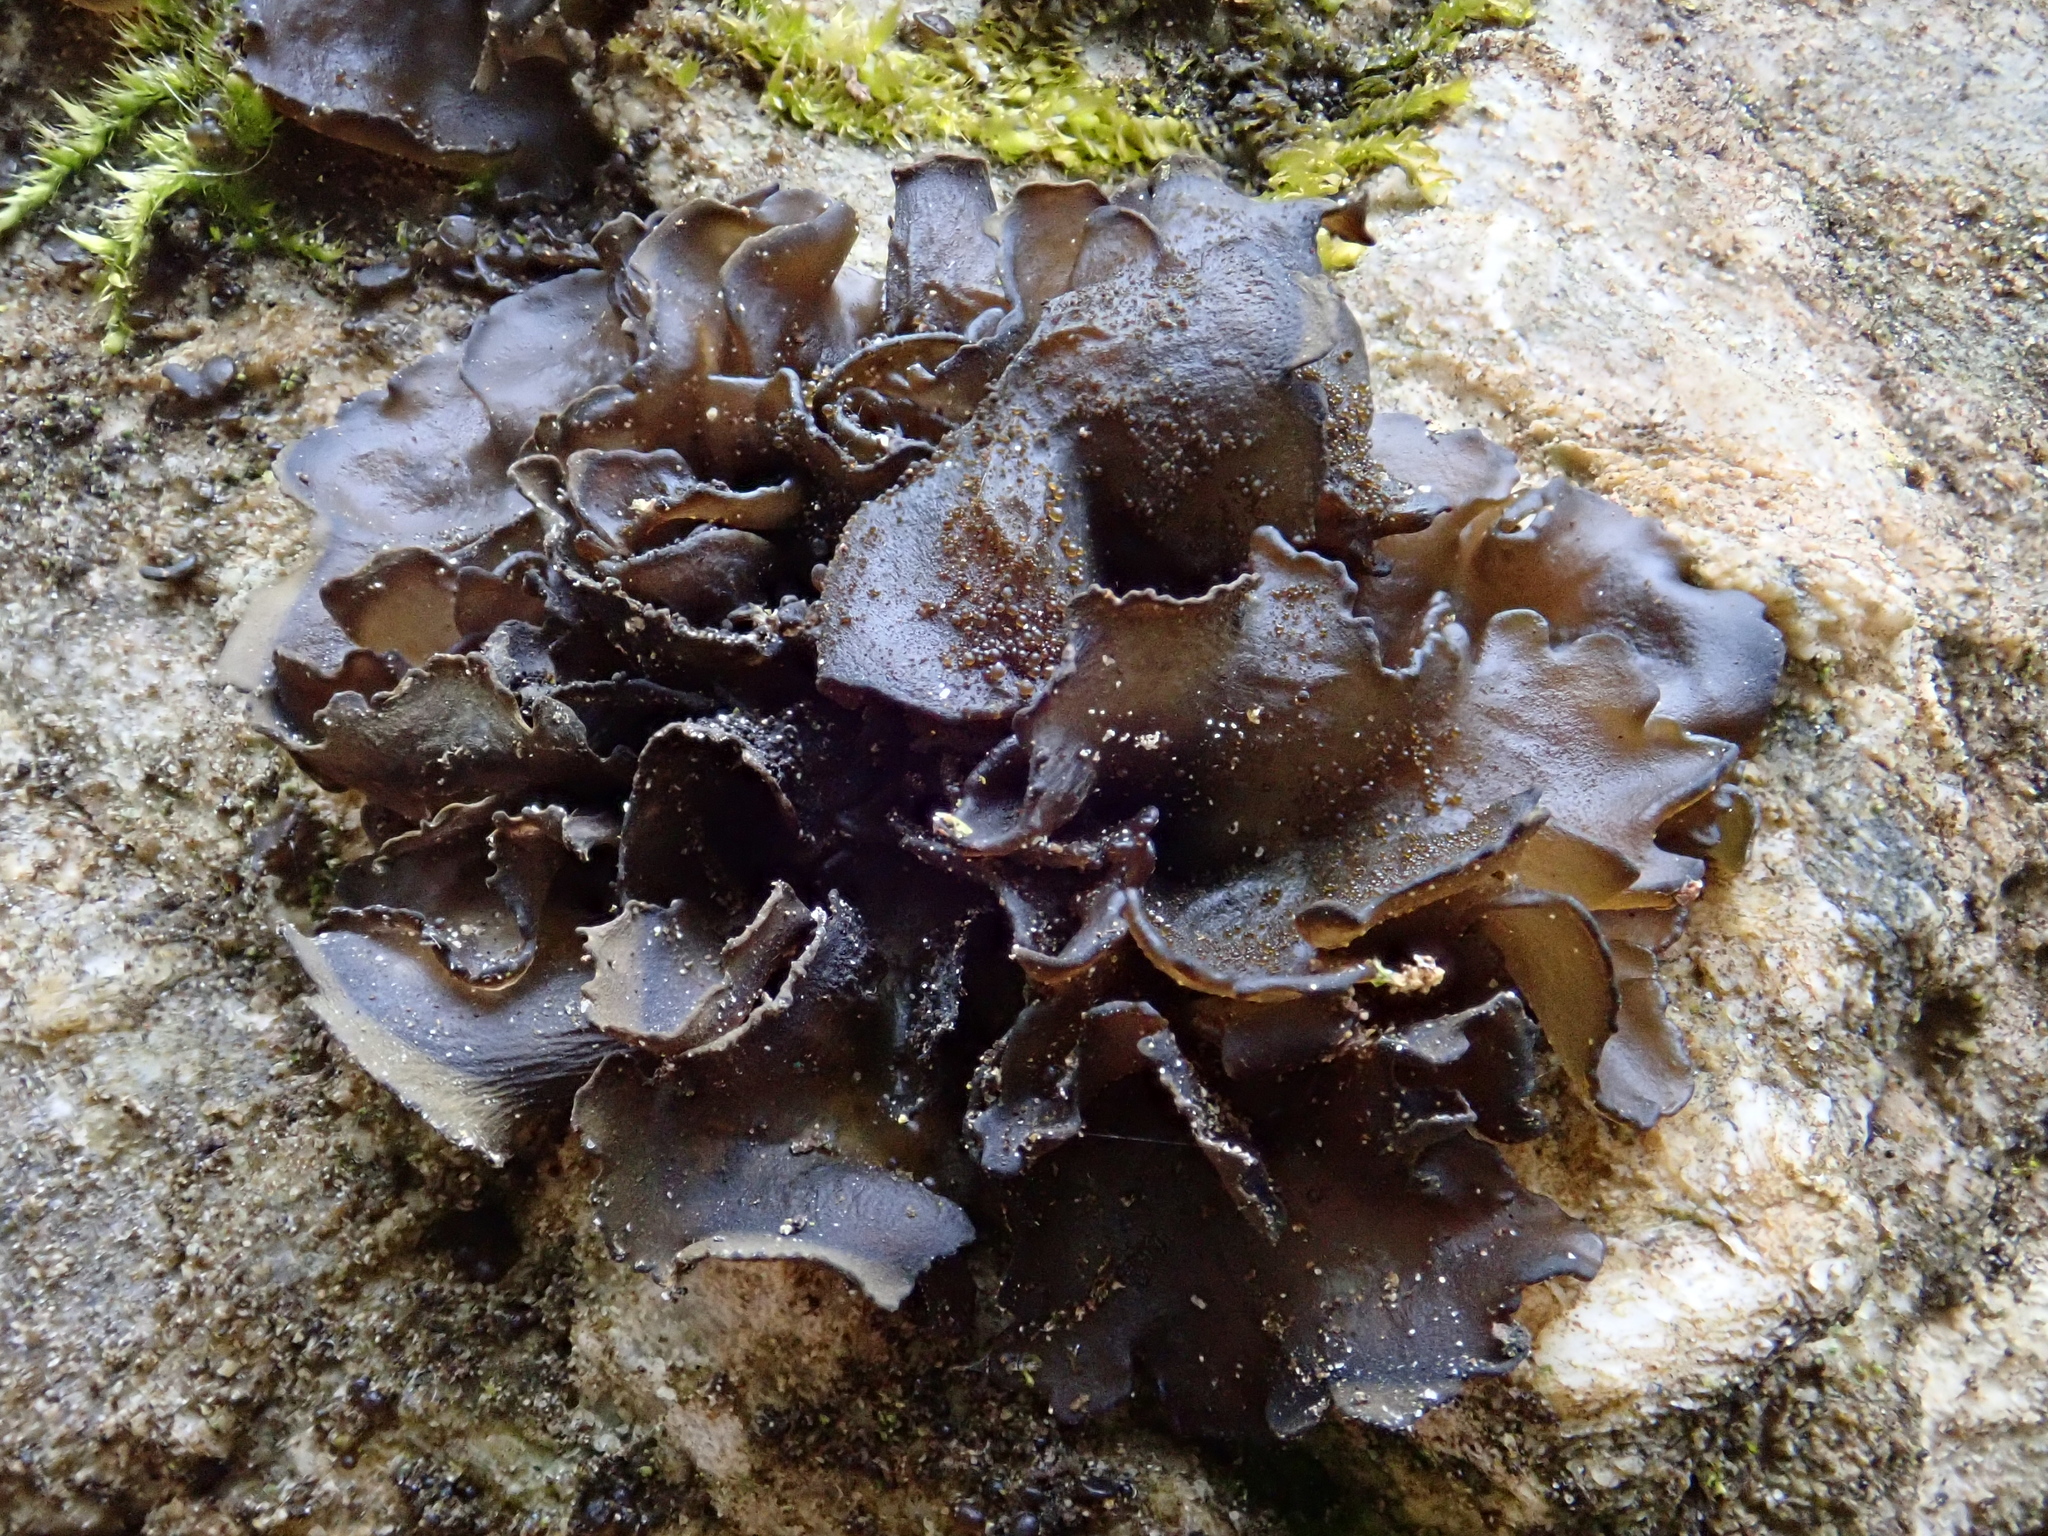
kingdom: Fungi
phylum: Ascomycota
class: Lecanoromycetes
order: Peltigerales
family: Collemataceae
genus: Lathagrium
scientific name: Lathagrium auriforme
